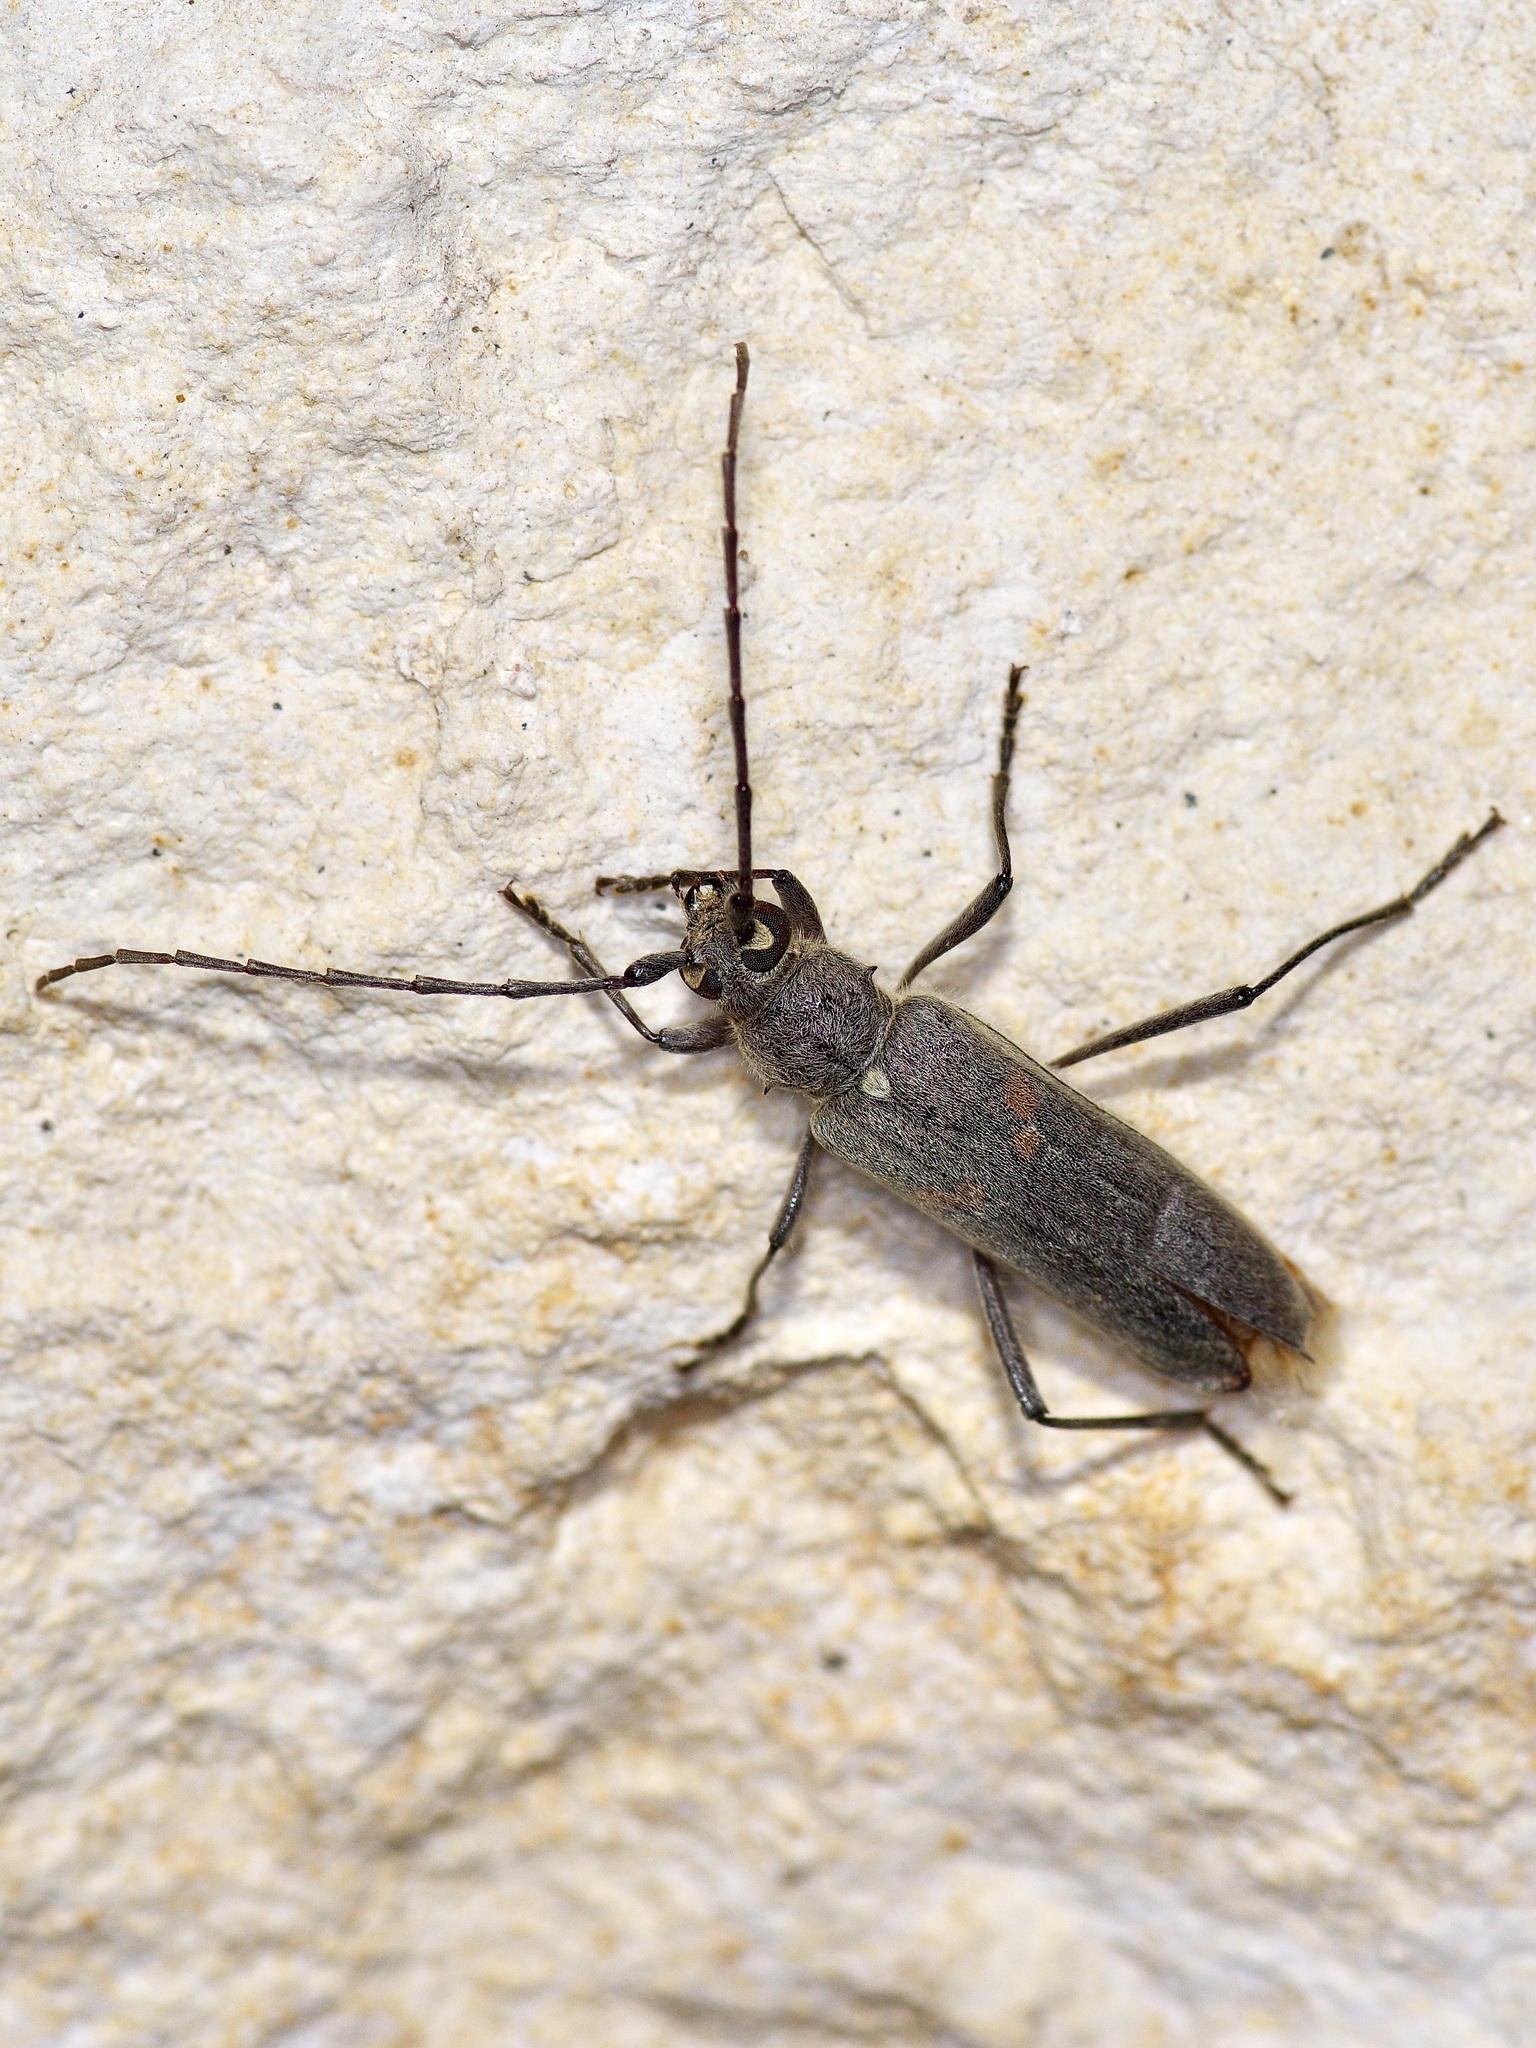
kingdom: Animalia
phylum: Arthropoda
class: Insecta
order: Coleoptera
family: Cerambycidae
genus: Knulliana
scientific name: Knulliana cincta
